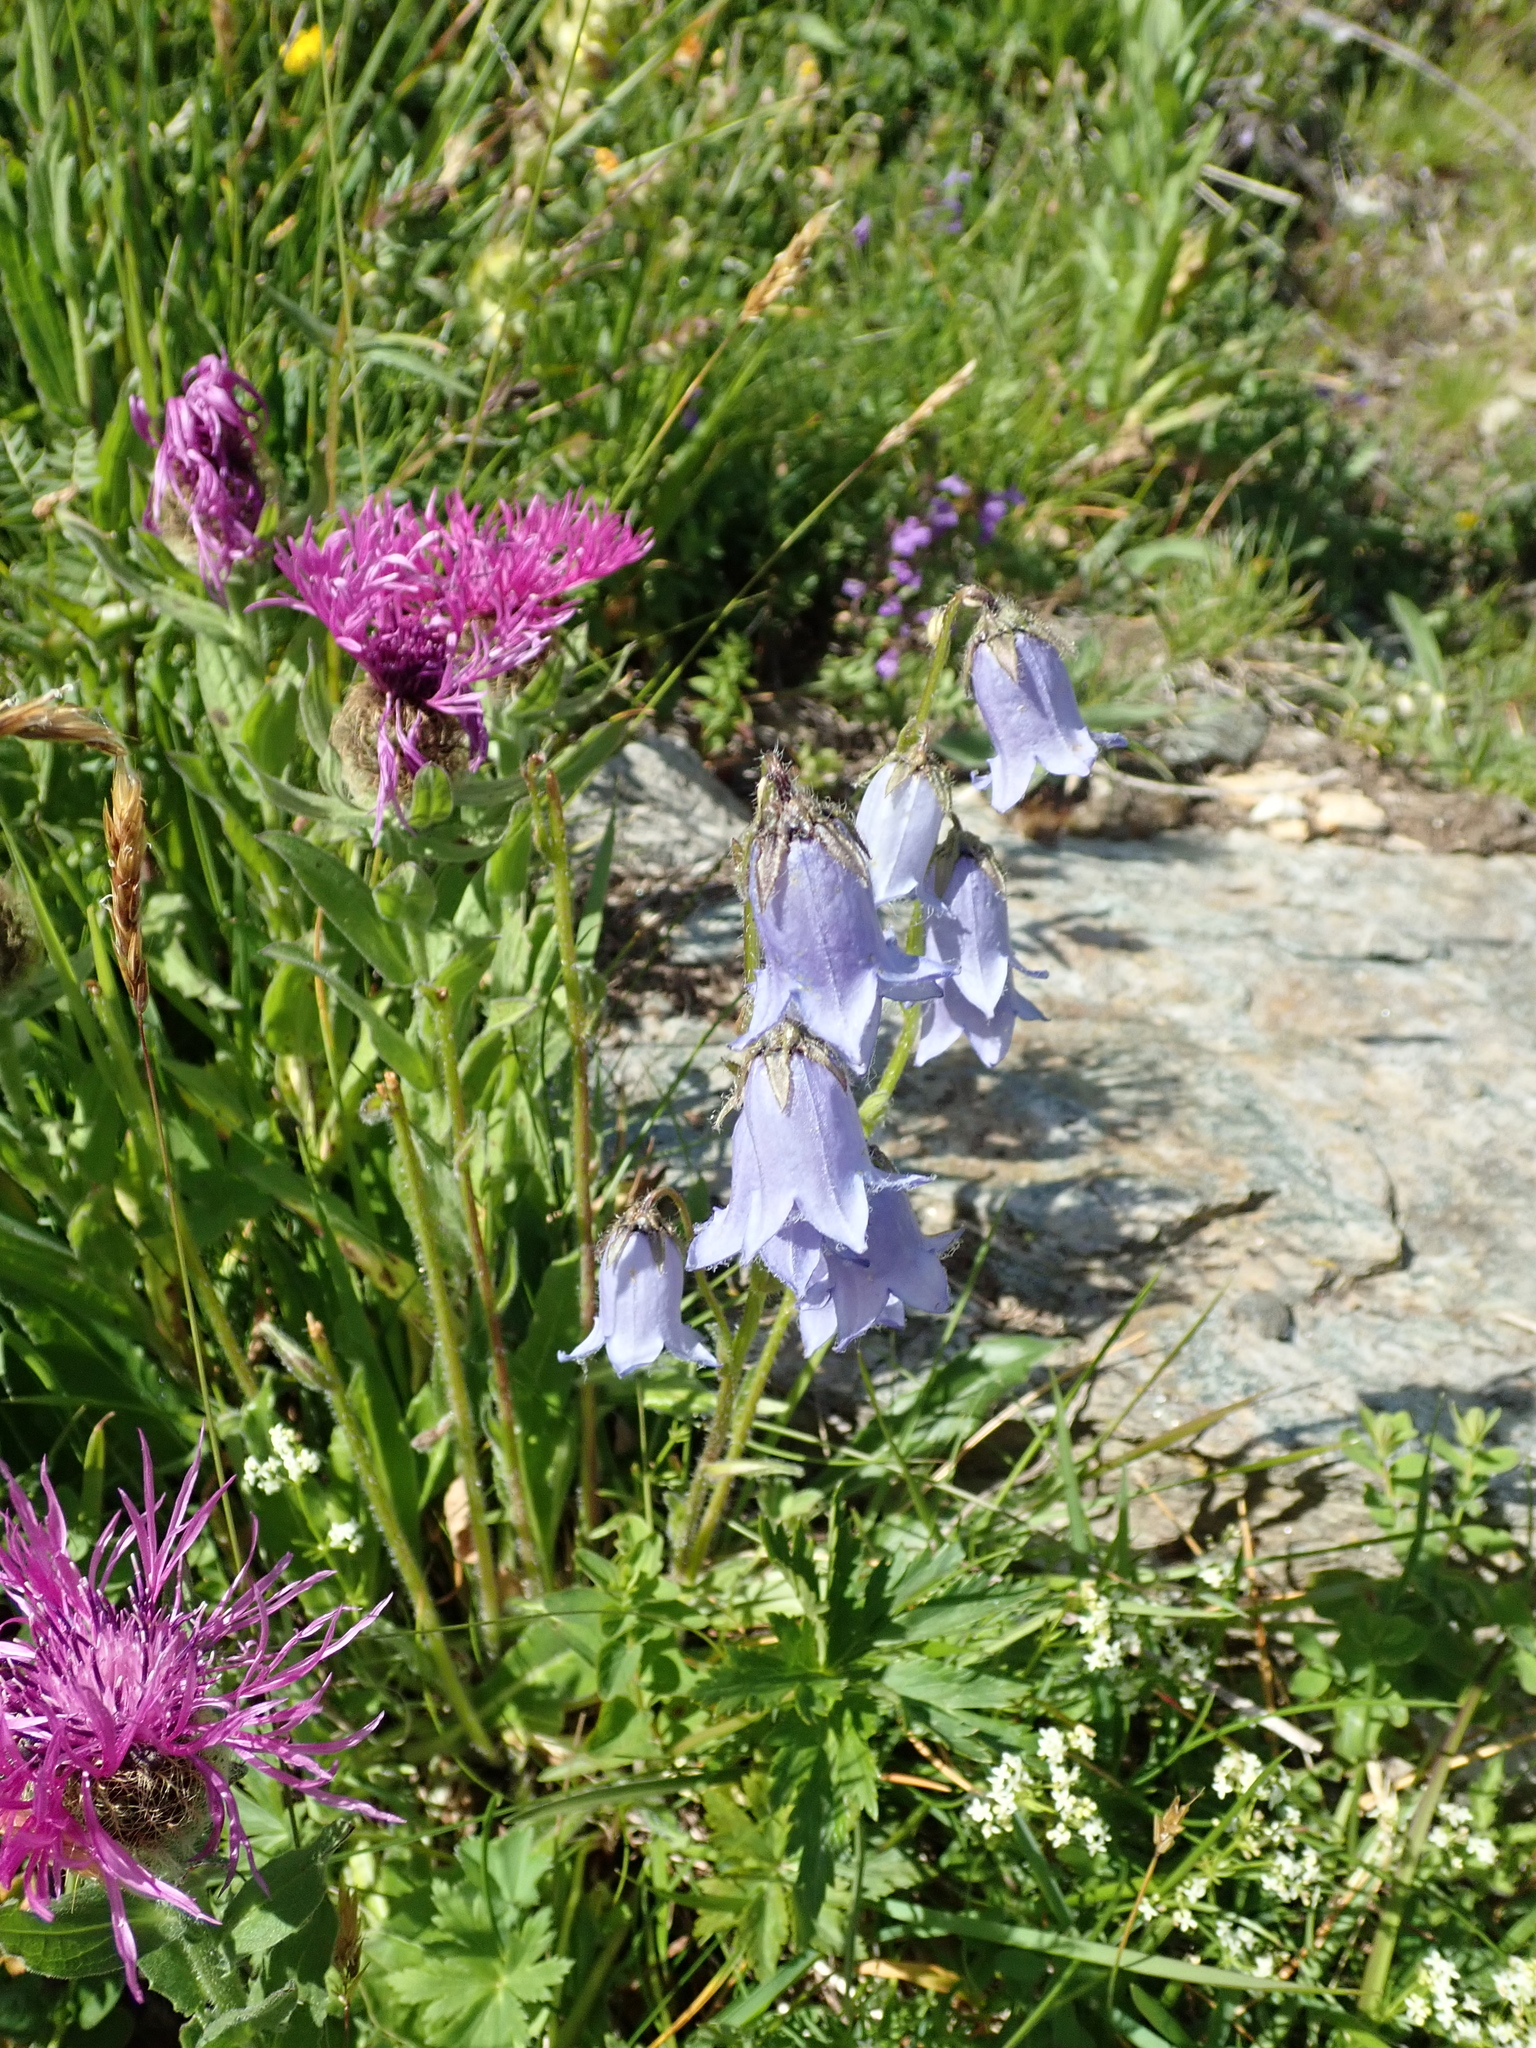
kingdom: Plantae
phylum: Tracheophyta
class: Magnoliopsida
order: Asterales
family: Campanulaceae
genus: Campanula
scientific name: Campanula barbata
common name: Bearded bellflower
